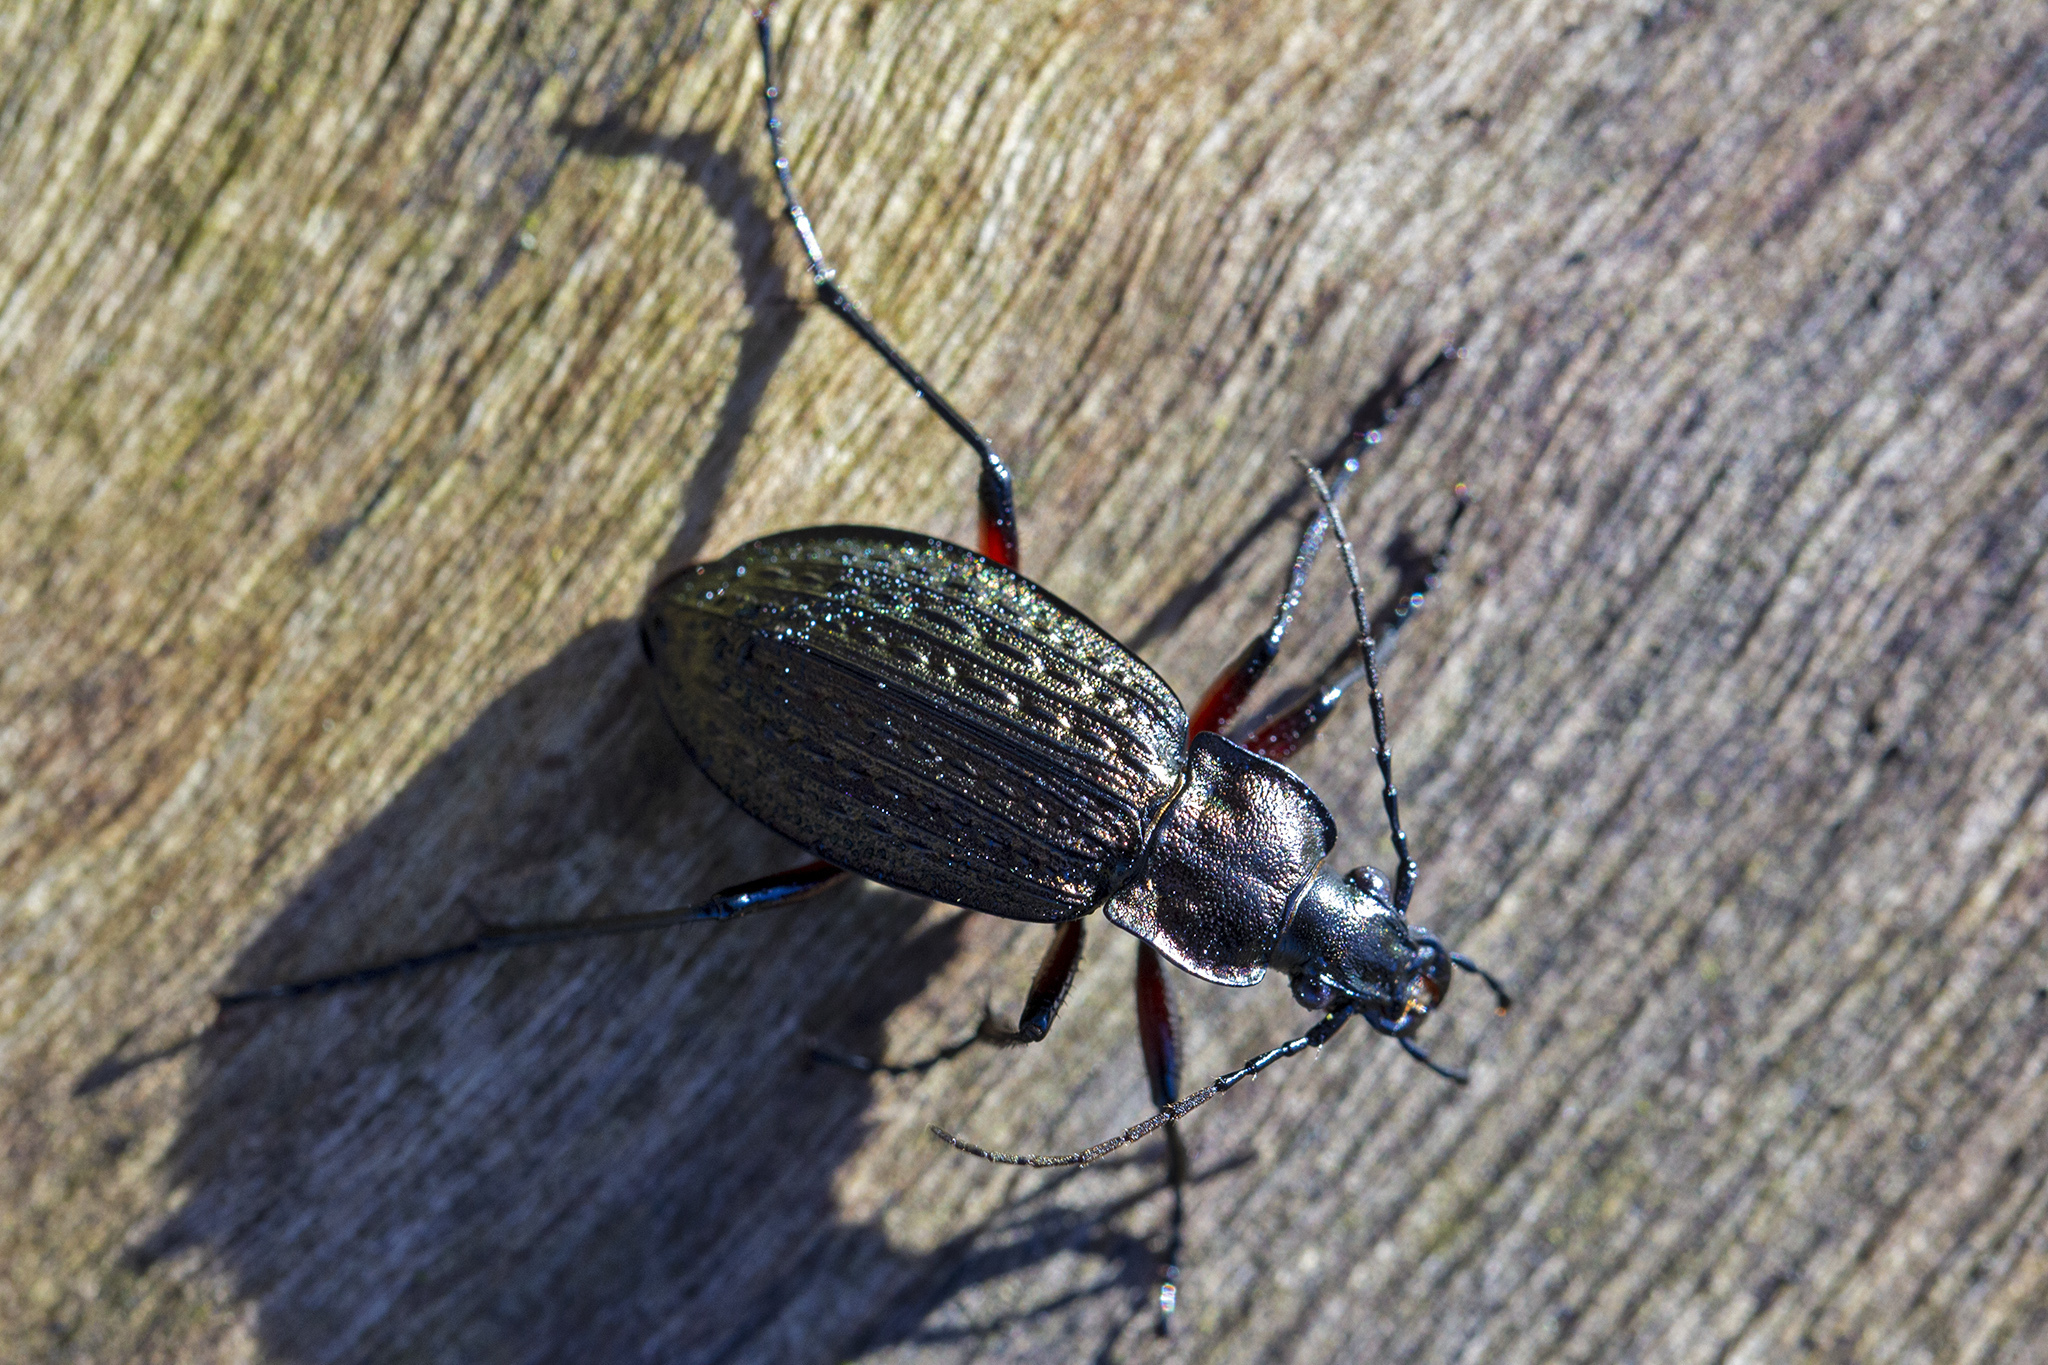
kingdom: Animalia
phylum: Arthropoda
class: Insecta
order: Coleoptera
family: Carabidae
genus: Carabus
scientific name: Carabus granulatus
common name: Granulate ground beetle
